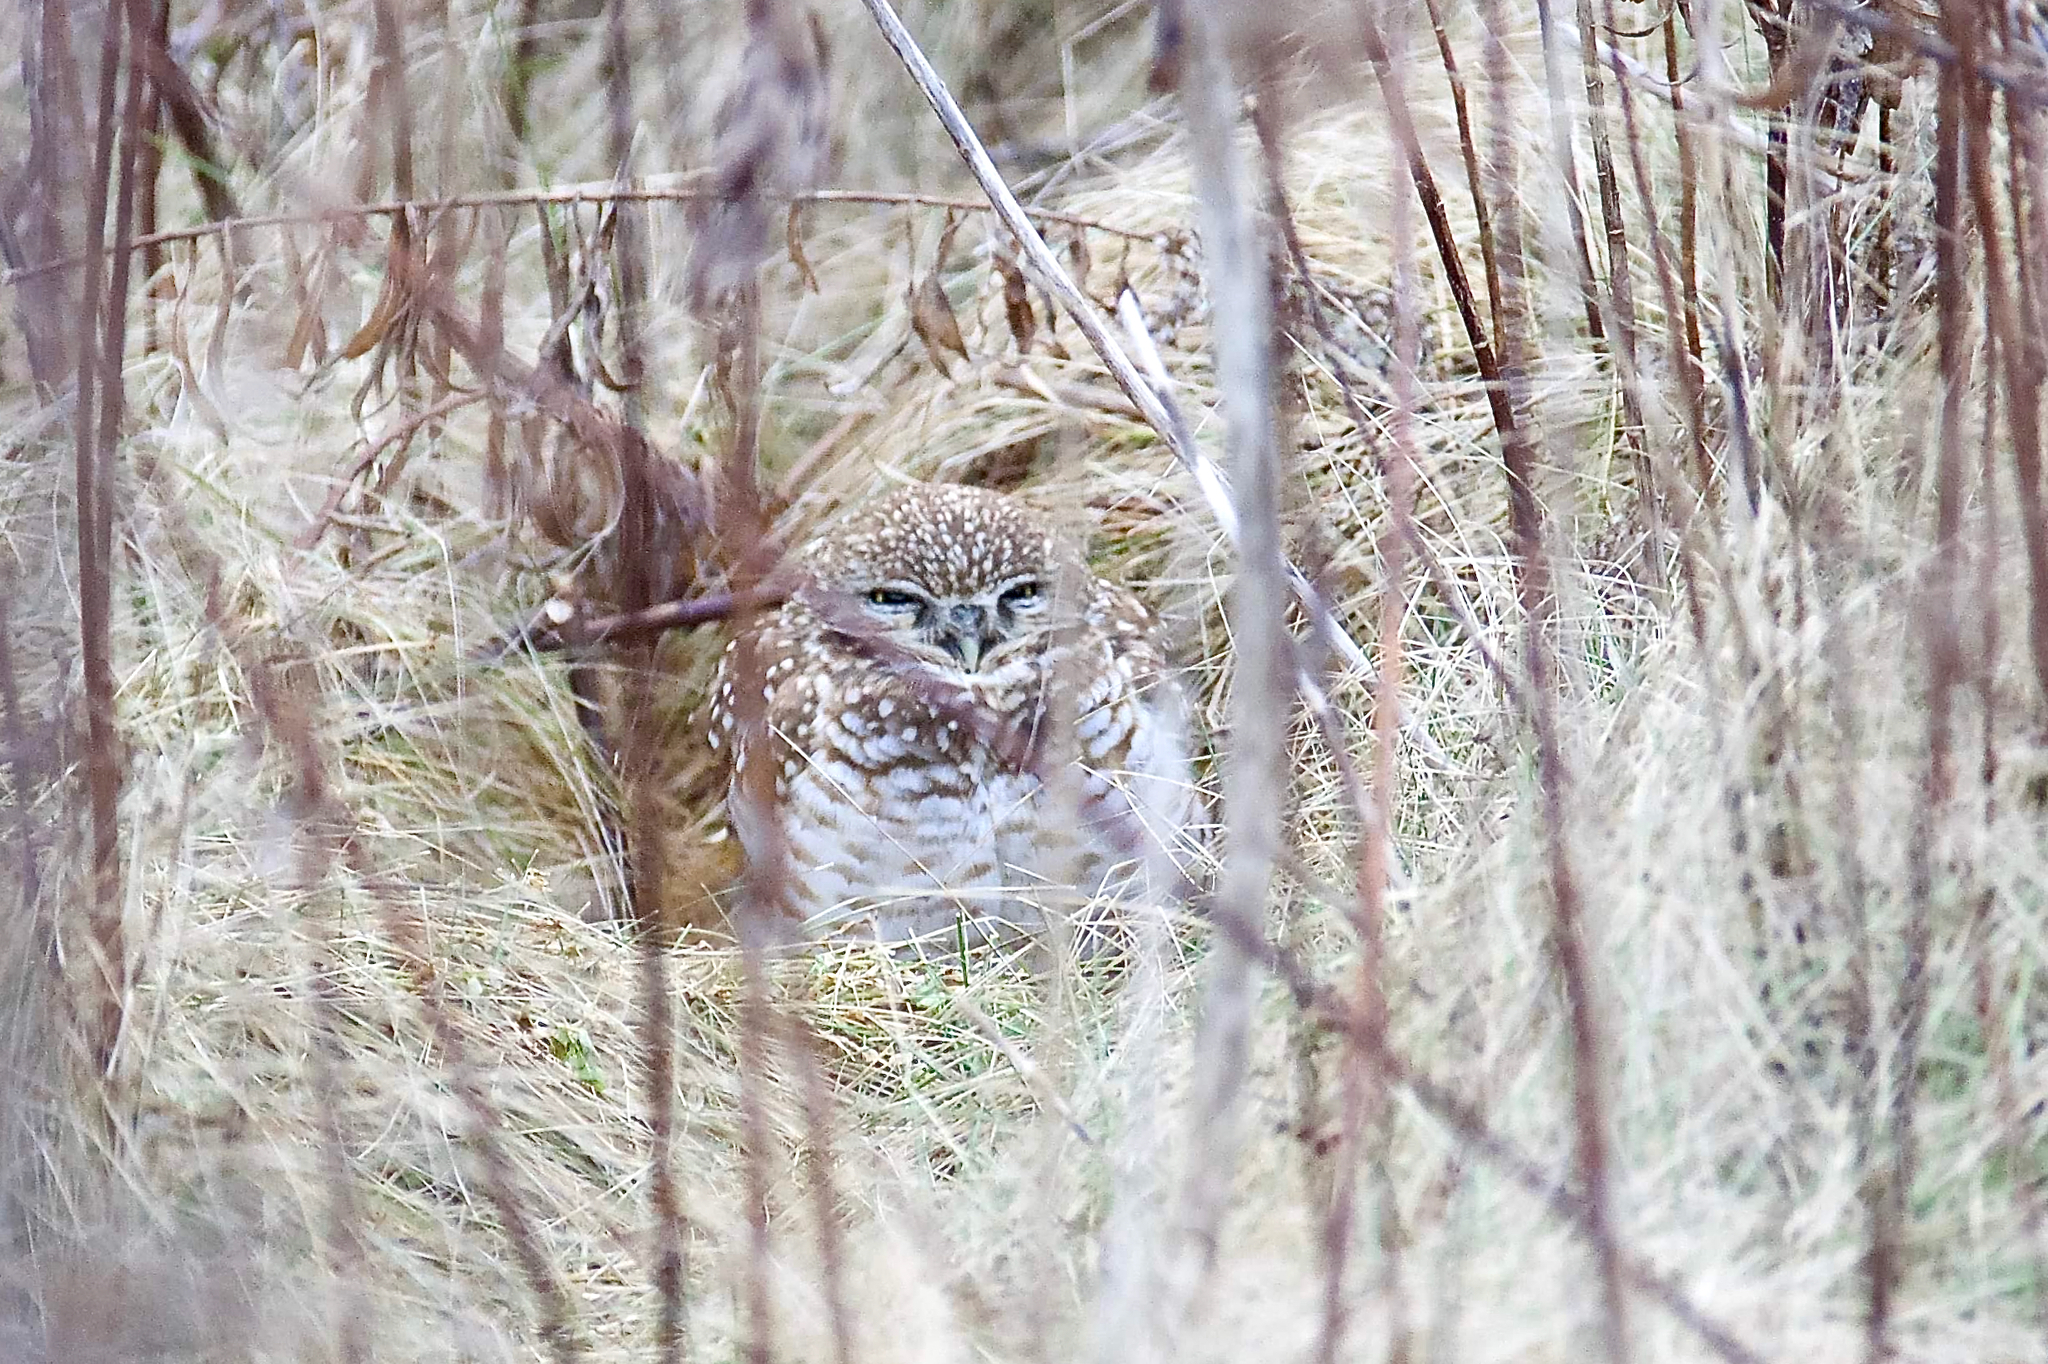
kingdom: Animalia
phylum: Chordata
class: Aves
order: Strigiformes
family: Strigidae
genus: Athene
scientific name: Athene cunicularia
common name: Burrowing owl
